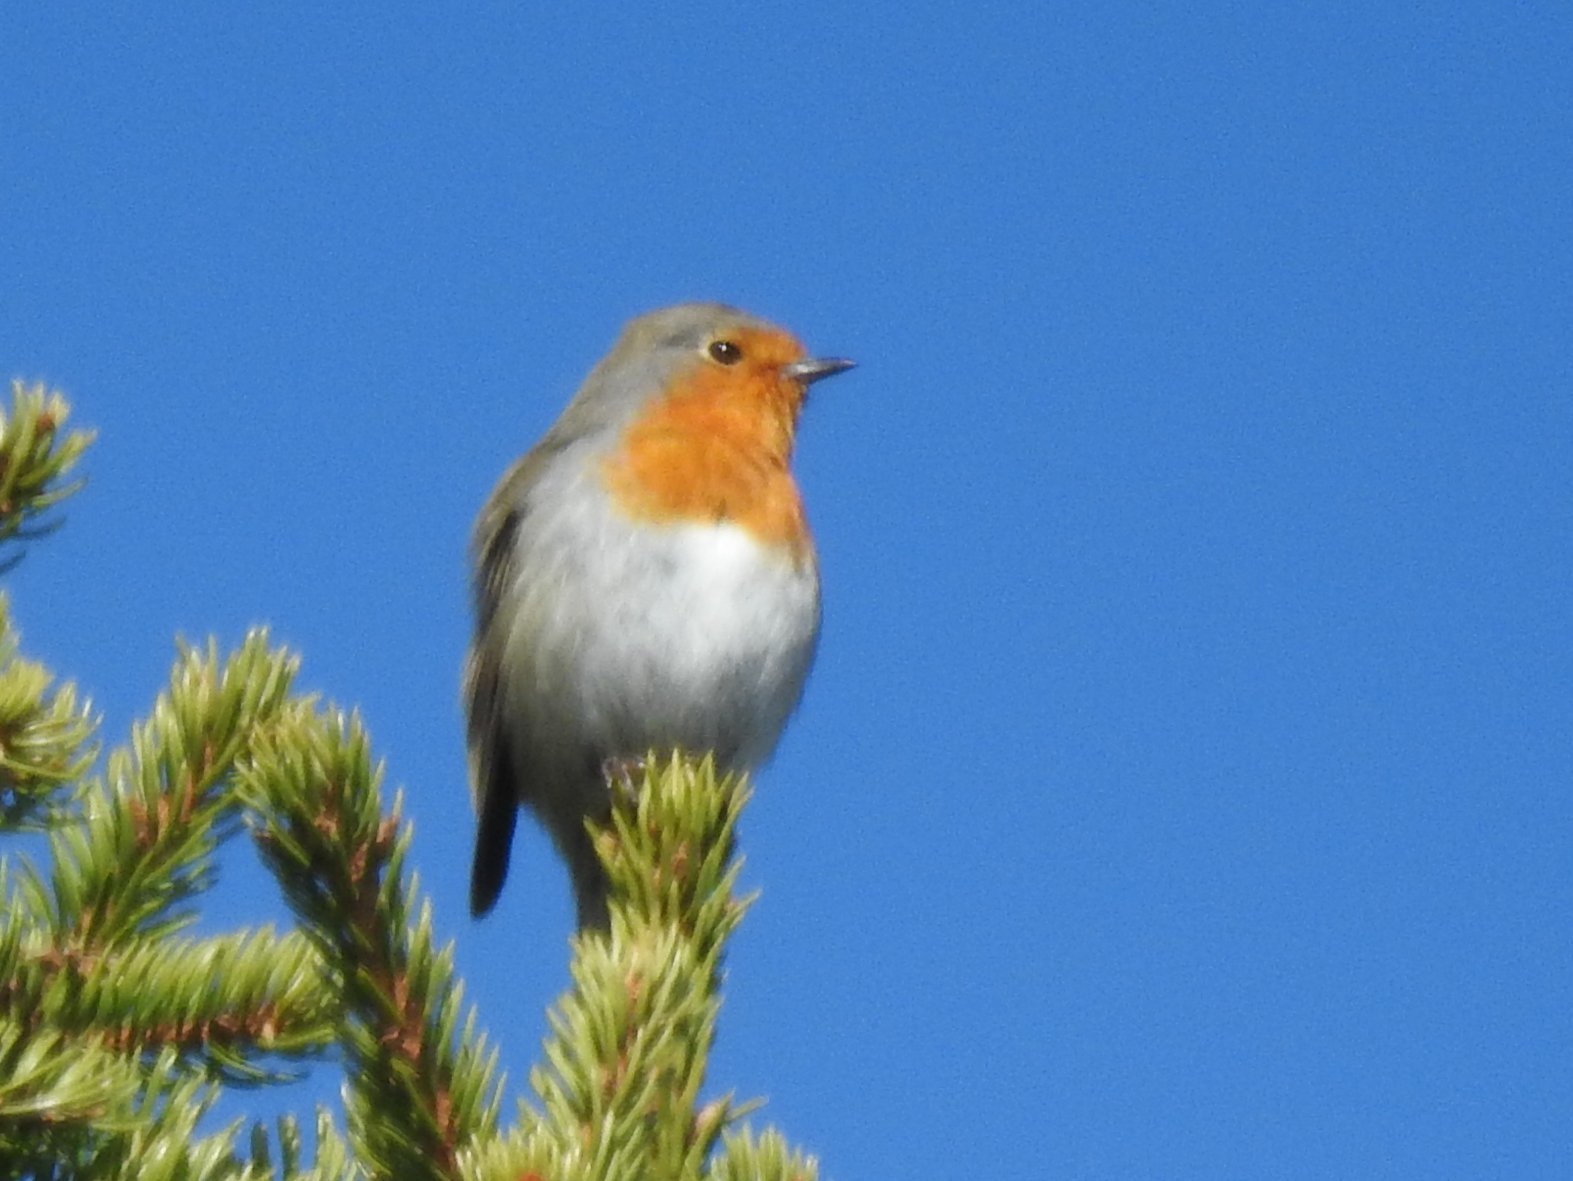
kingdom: Animalia
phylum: Chordata
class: Aves
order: Passeriformes
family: Muscicapidae
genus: Erithacus
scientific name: Erithacus rubecula
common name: European robin
